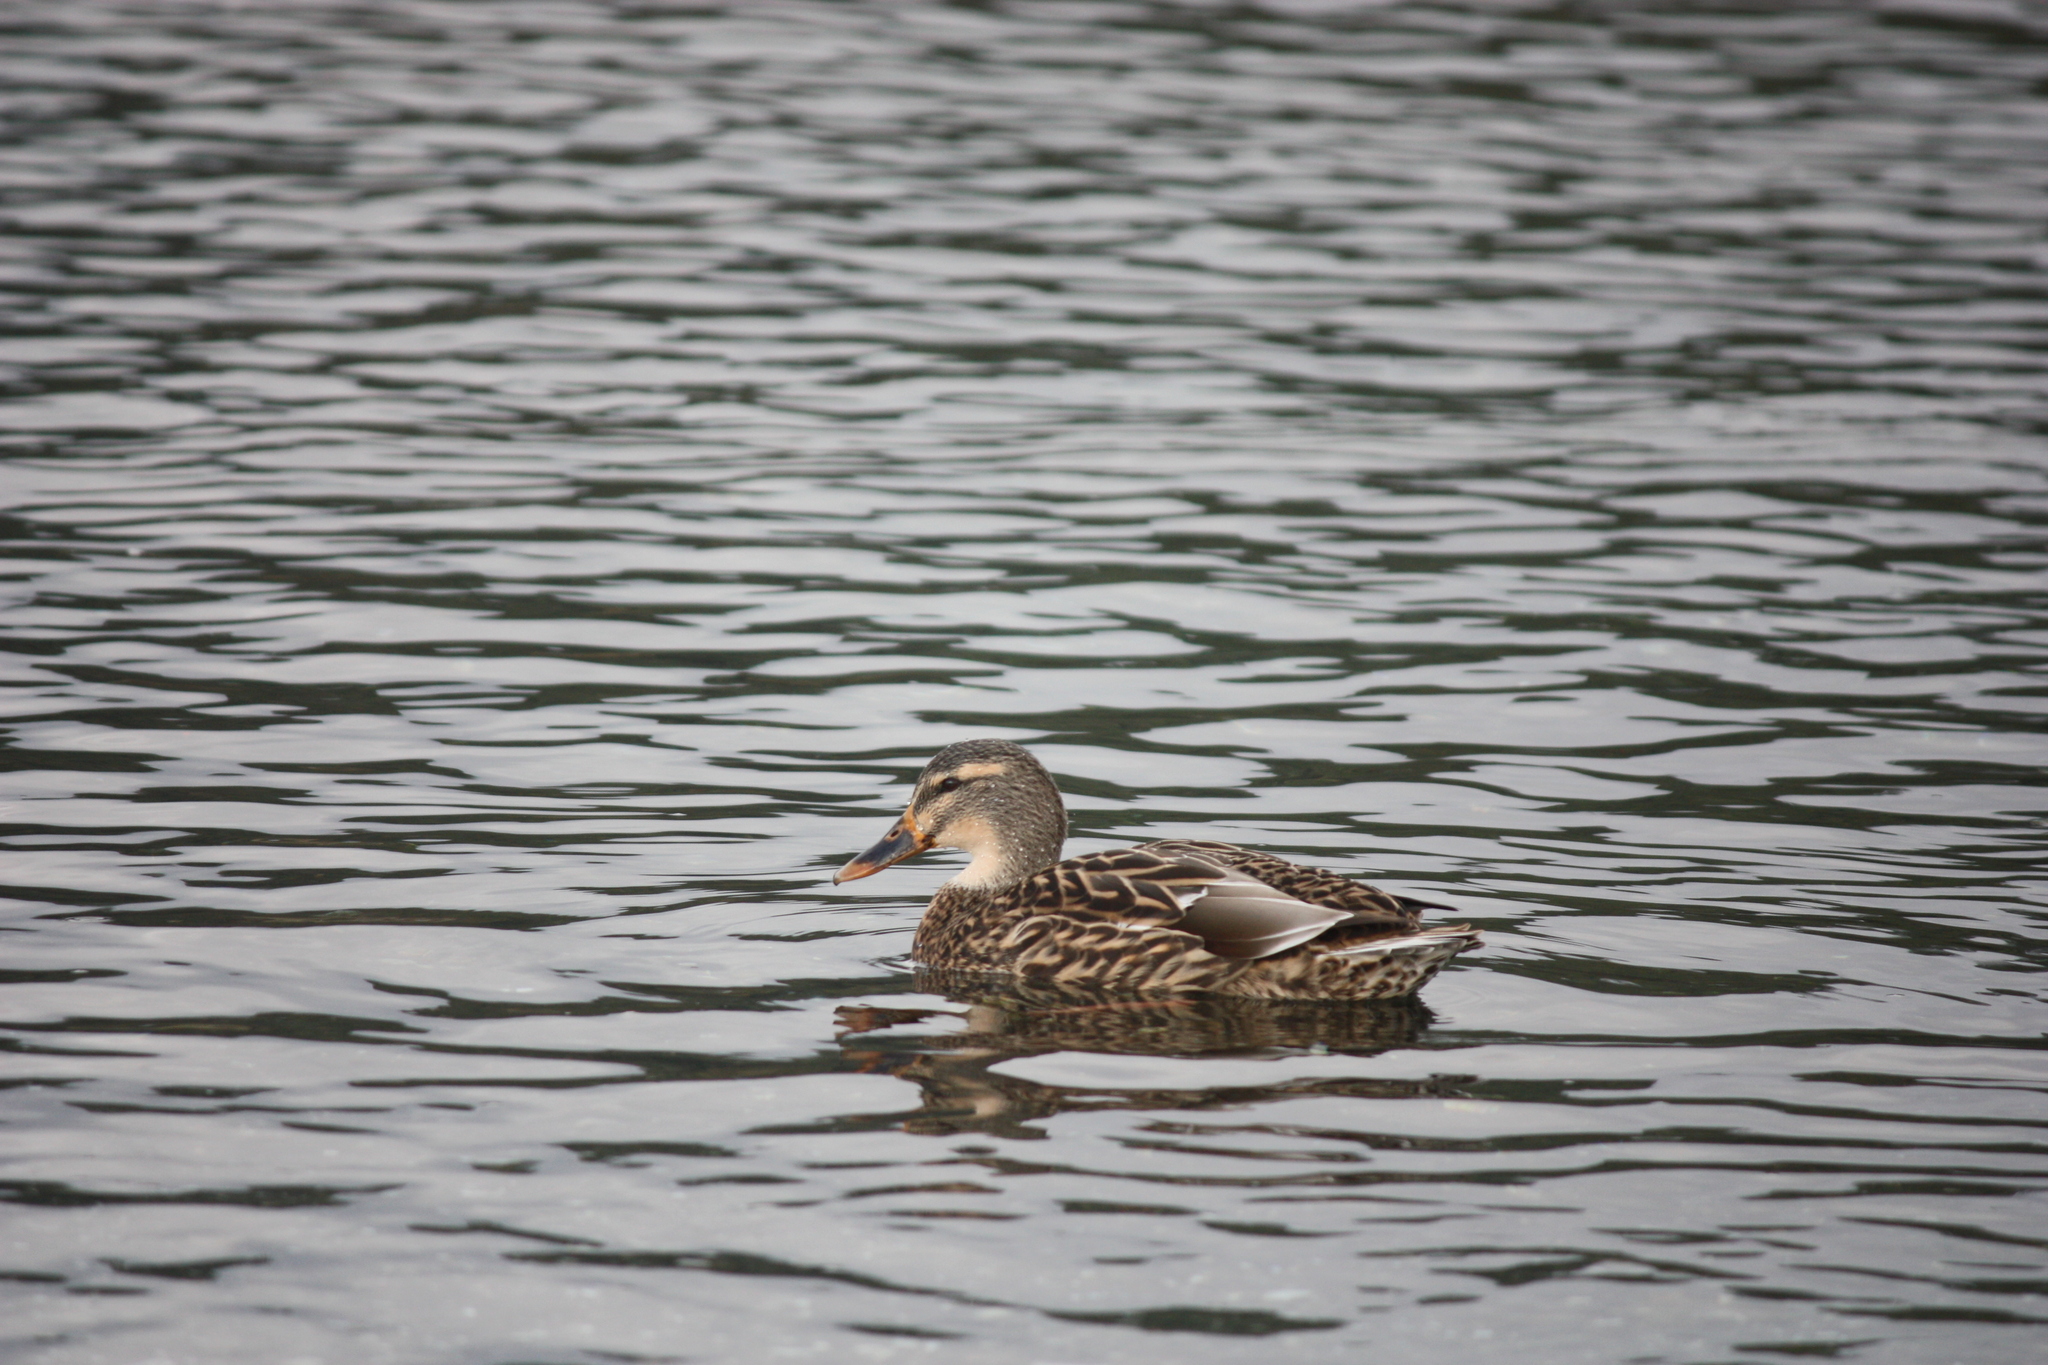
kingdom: Animalia
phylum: Chordata
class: Aves
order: Anseriformes
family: Anatidae
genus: Anas
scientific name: Anas platyrhynchos
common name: Mallard
